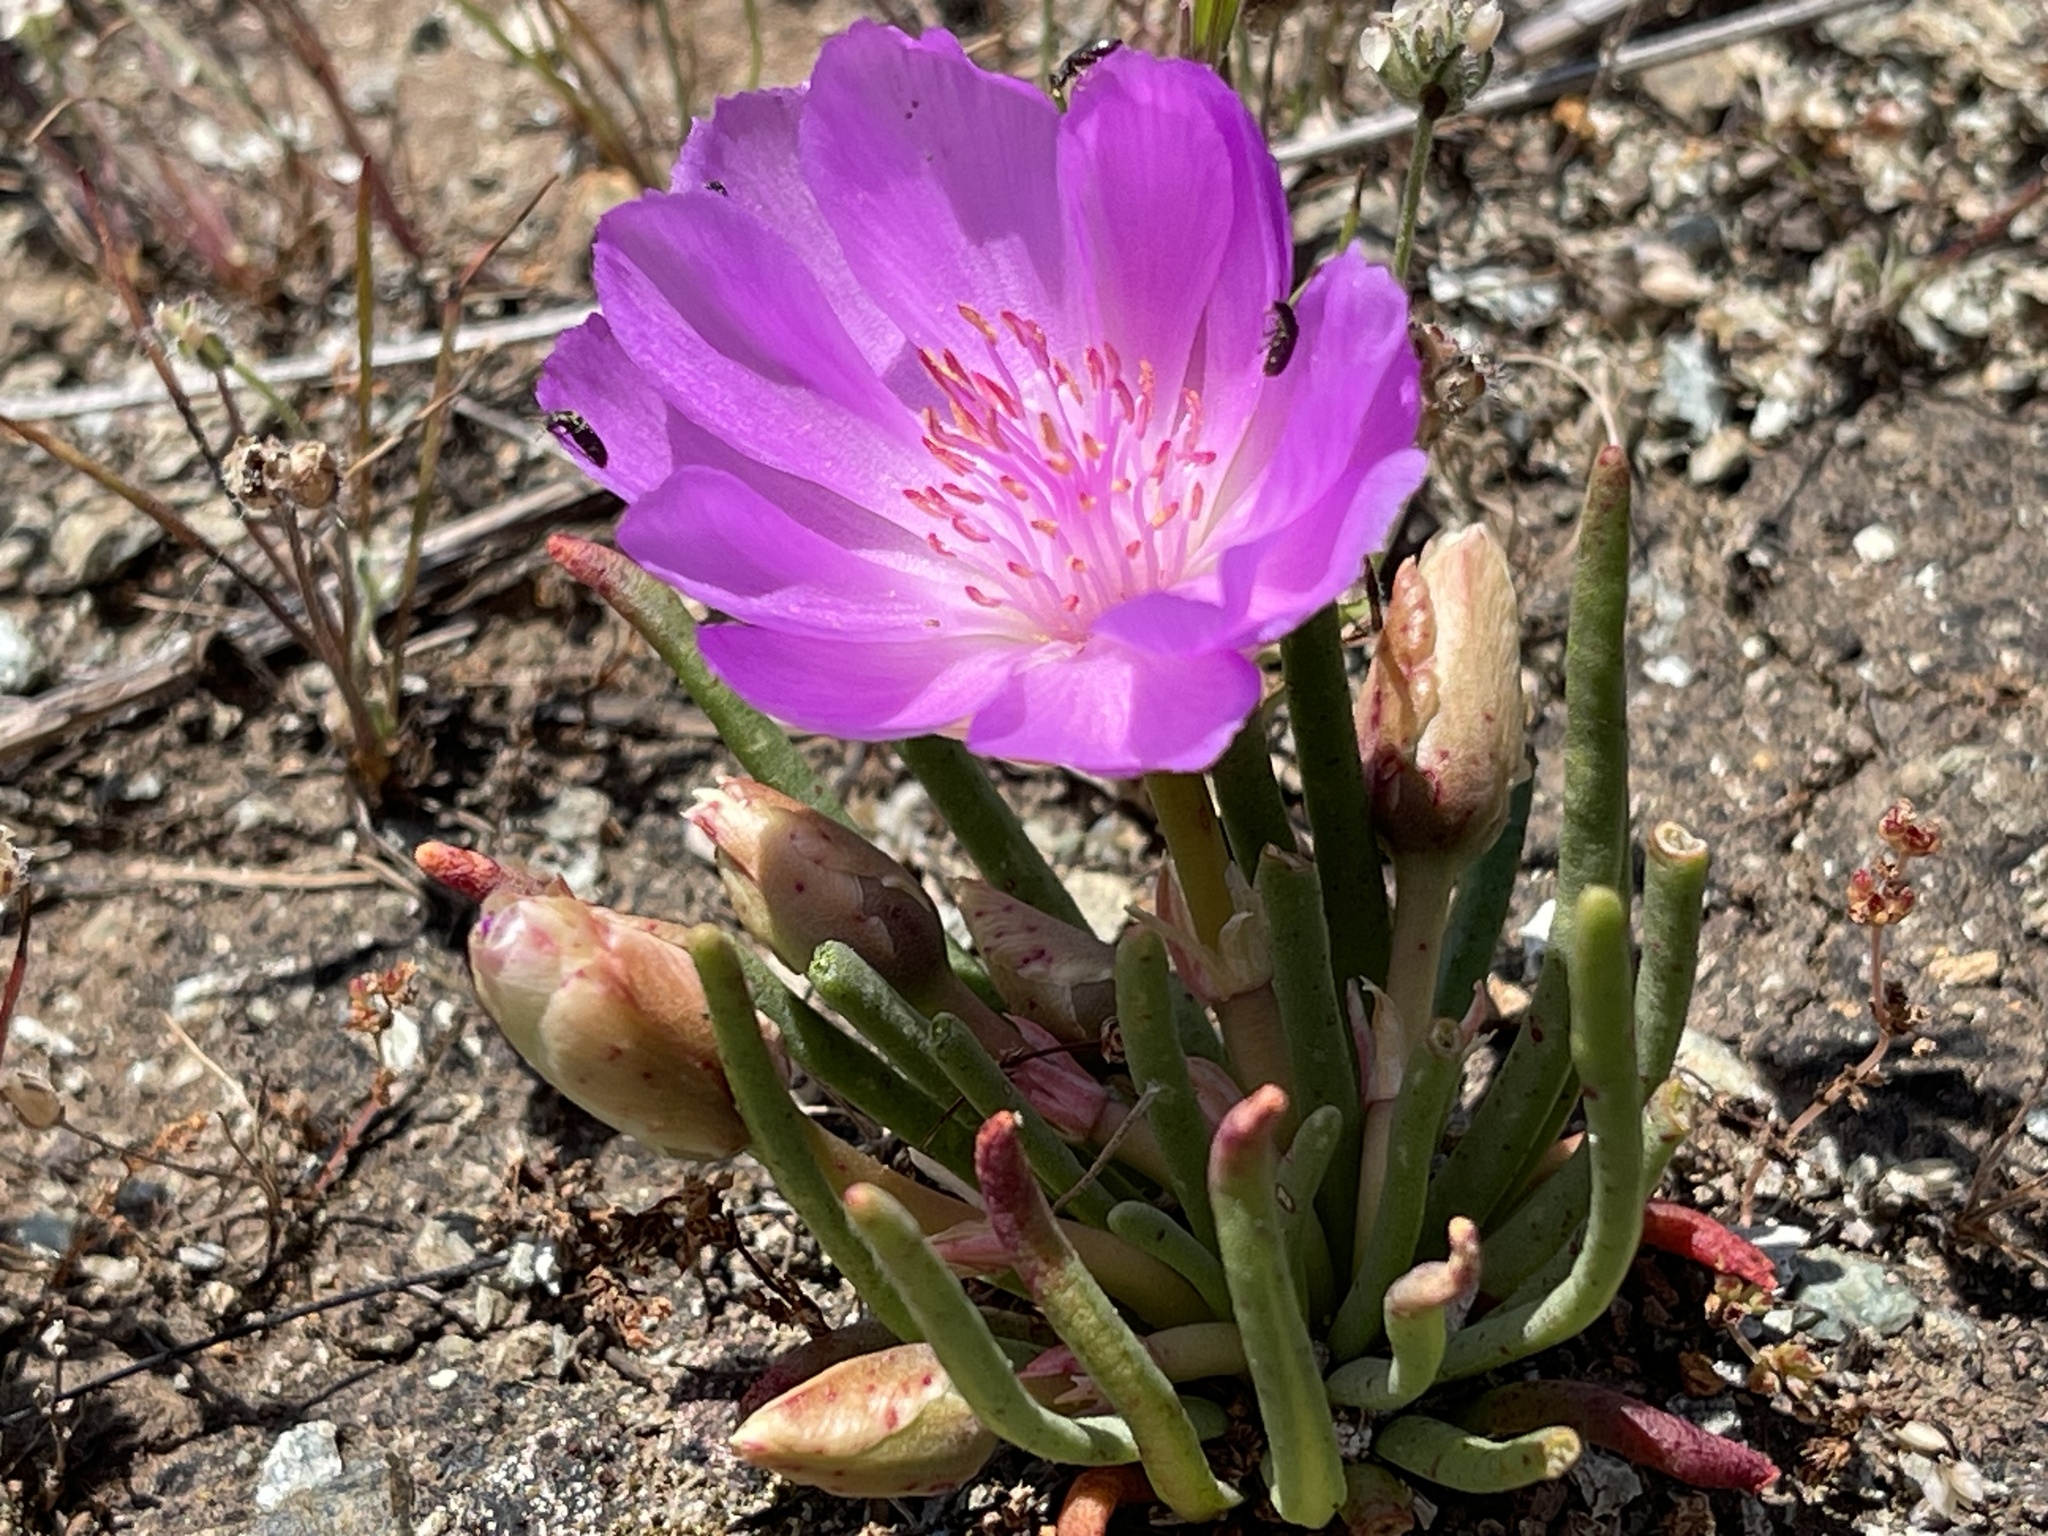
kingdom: Plantae
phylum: Tracheophyta
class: Magnoliopsida
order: Caryophyllales
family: Montiaceae
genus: Lewisia
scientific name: Lewisia rediviva
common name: Bitter-root
